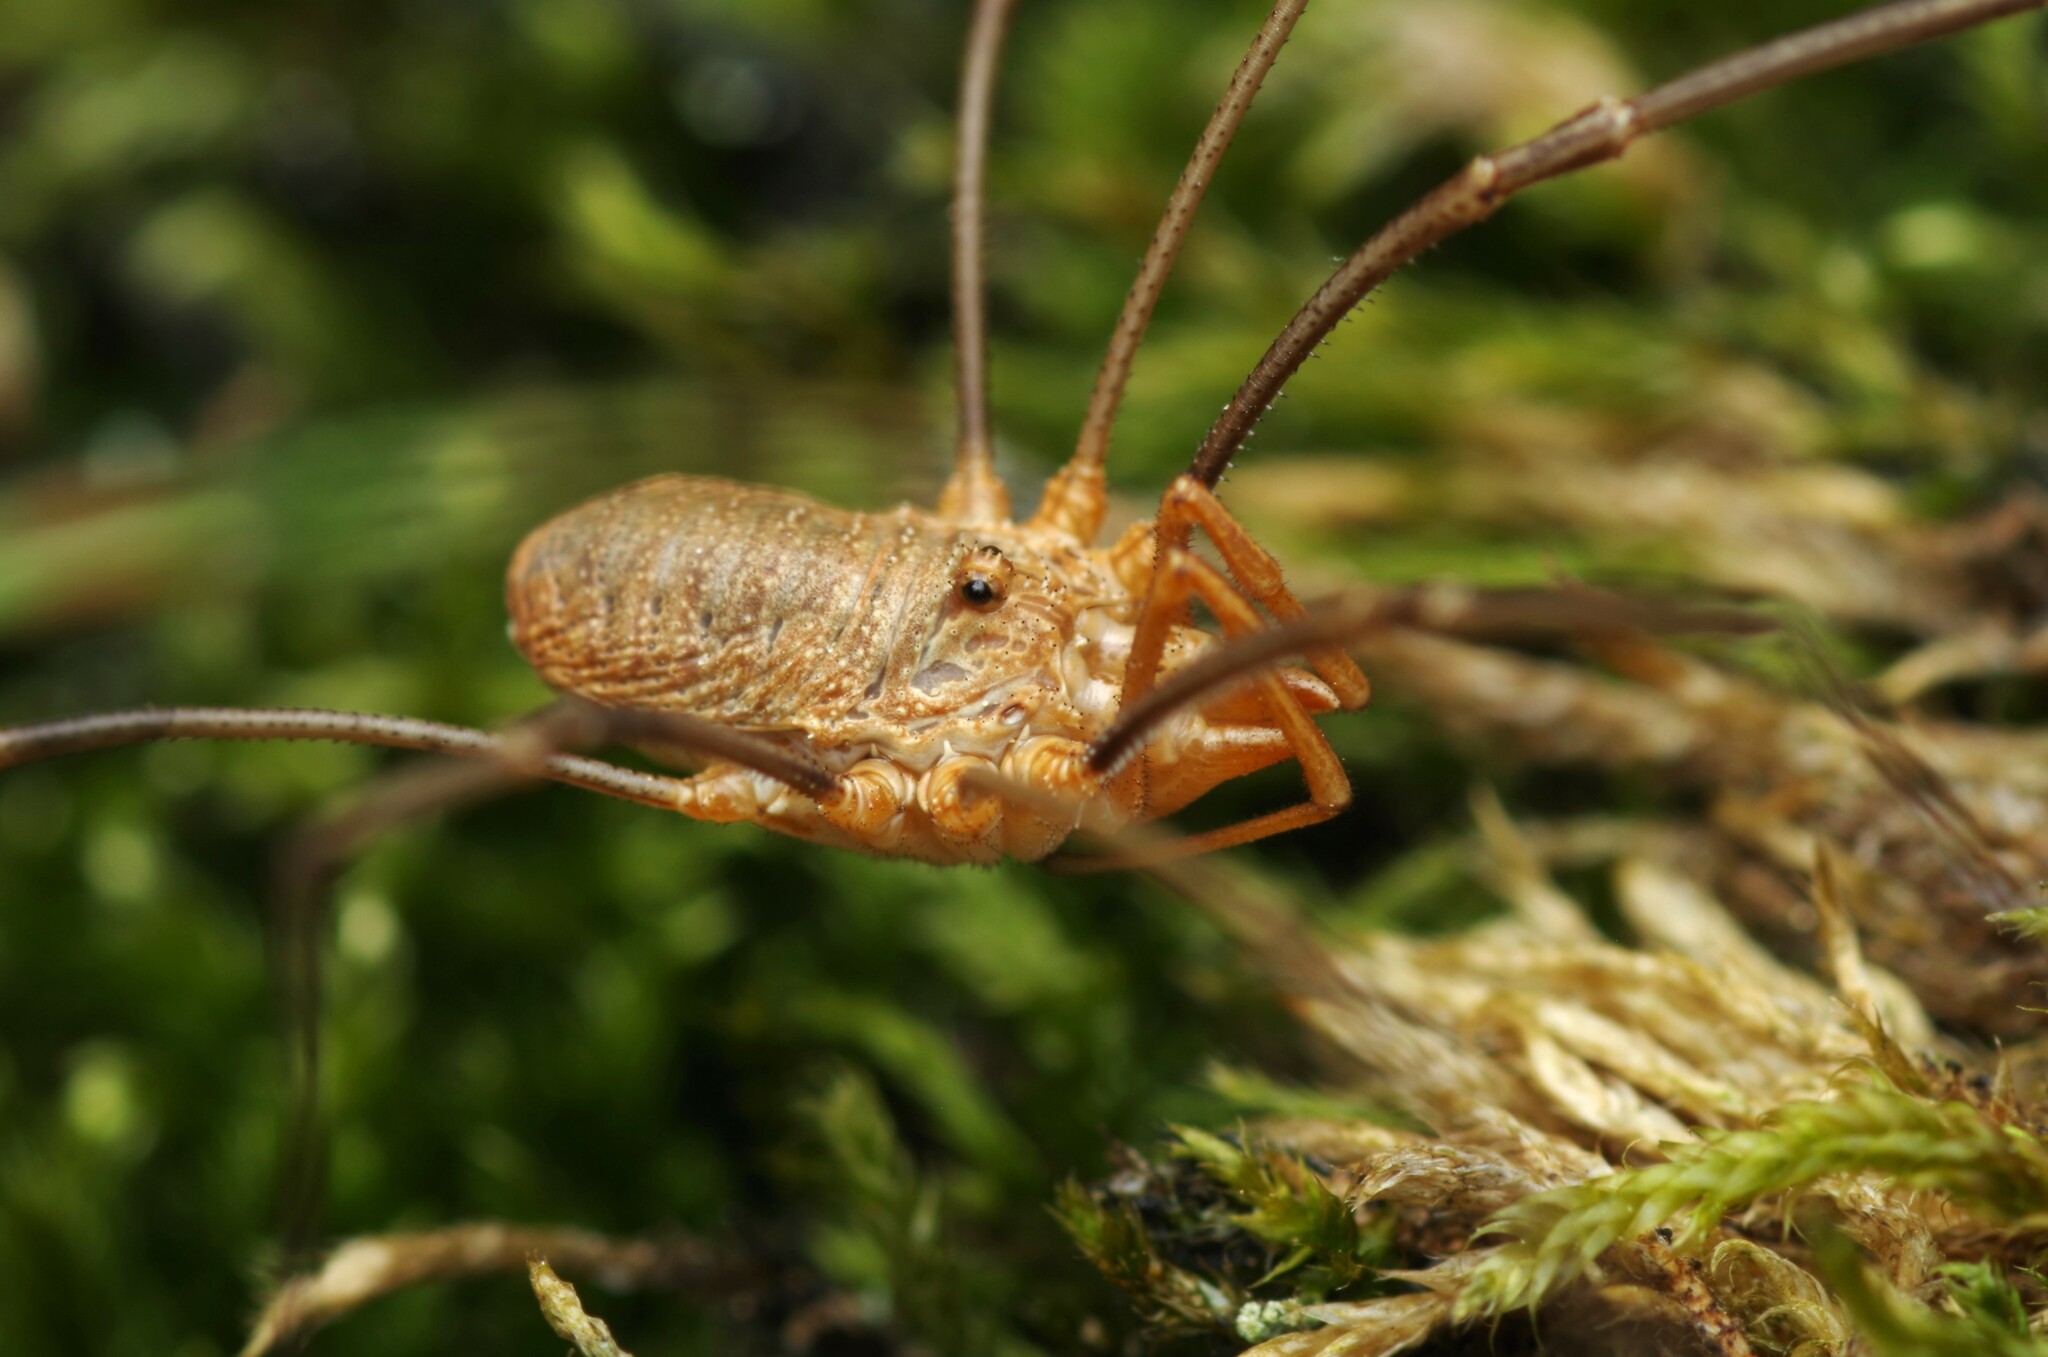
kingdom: Animalia
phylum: Arthropoda
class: Arachnida
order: Opiliones
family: Phalangiidae
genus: Phalangium
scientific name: Phalangium opilio
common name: Daddy longleg
